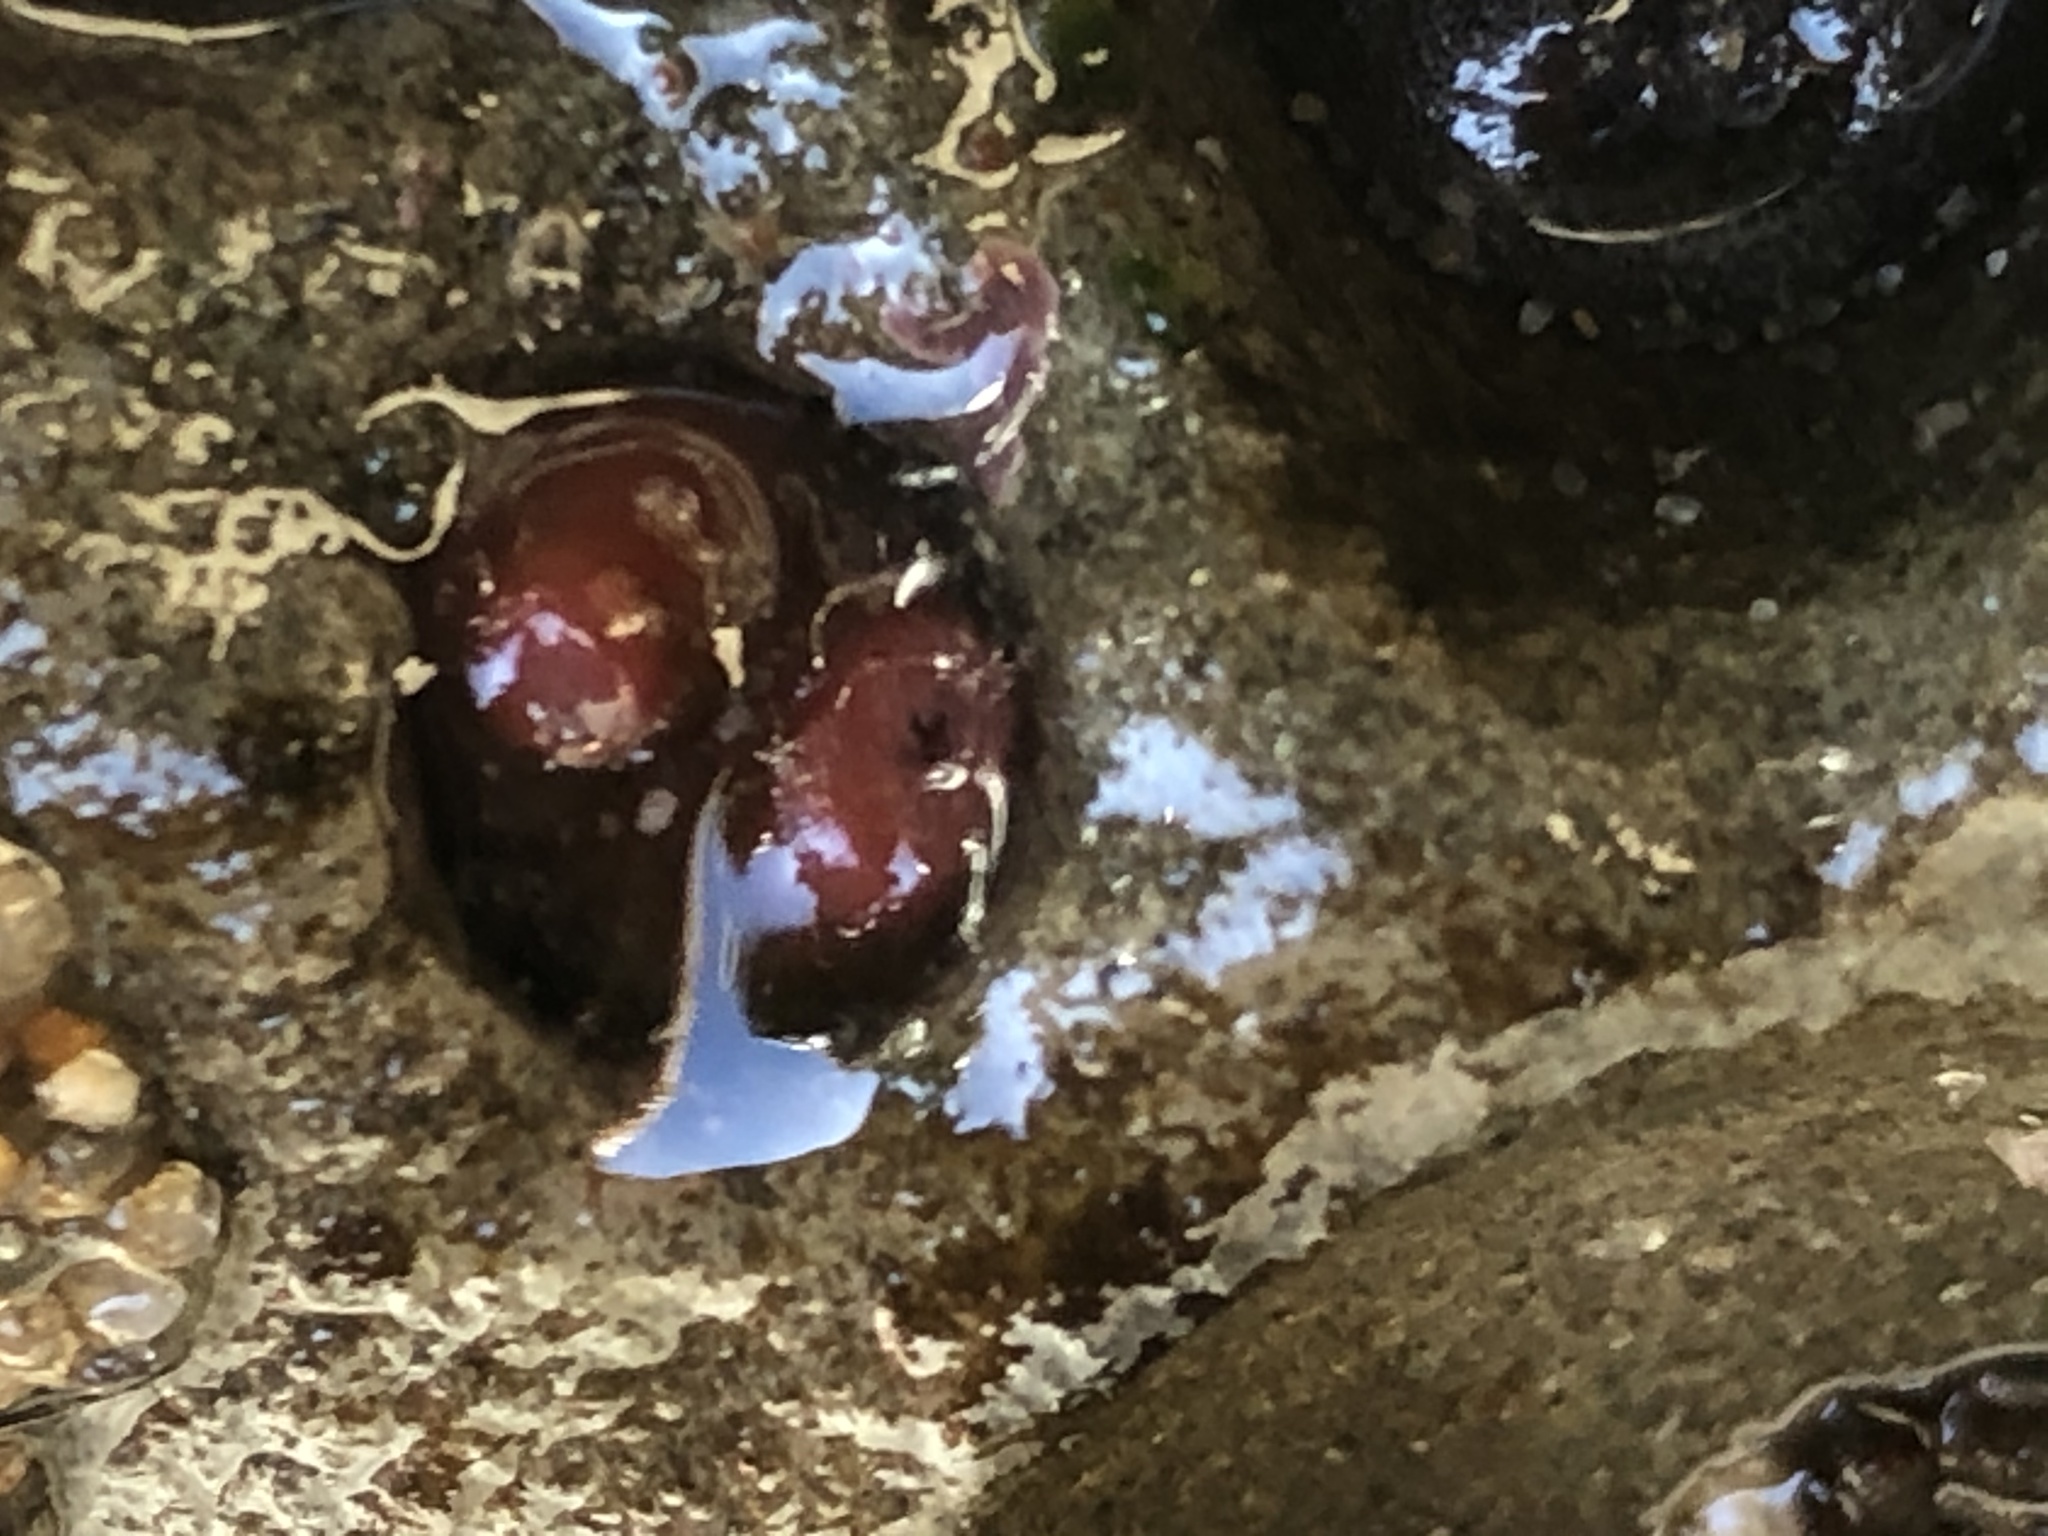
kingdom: Animalia
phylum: Mollusca
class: Bivalvia
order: Adapedonta
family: Hiatellidae
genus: Hiatella
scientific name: Hiatella arctica
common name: Arctic hiatella
